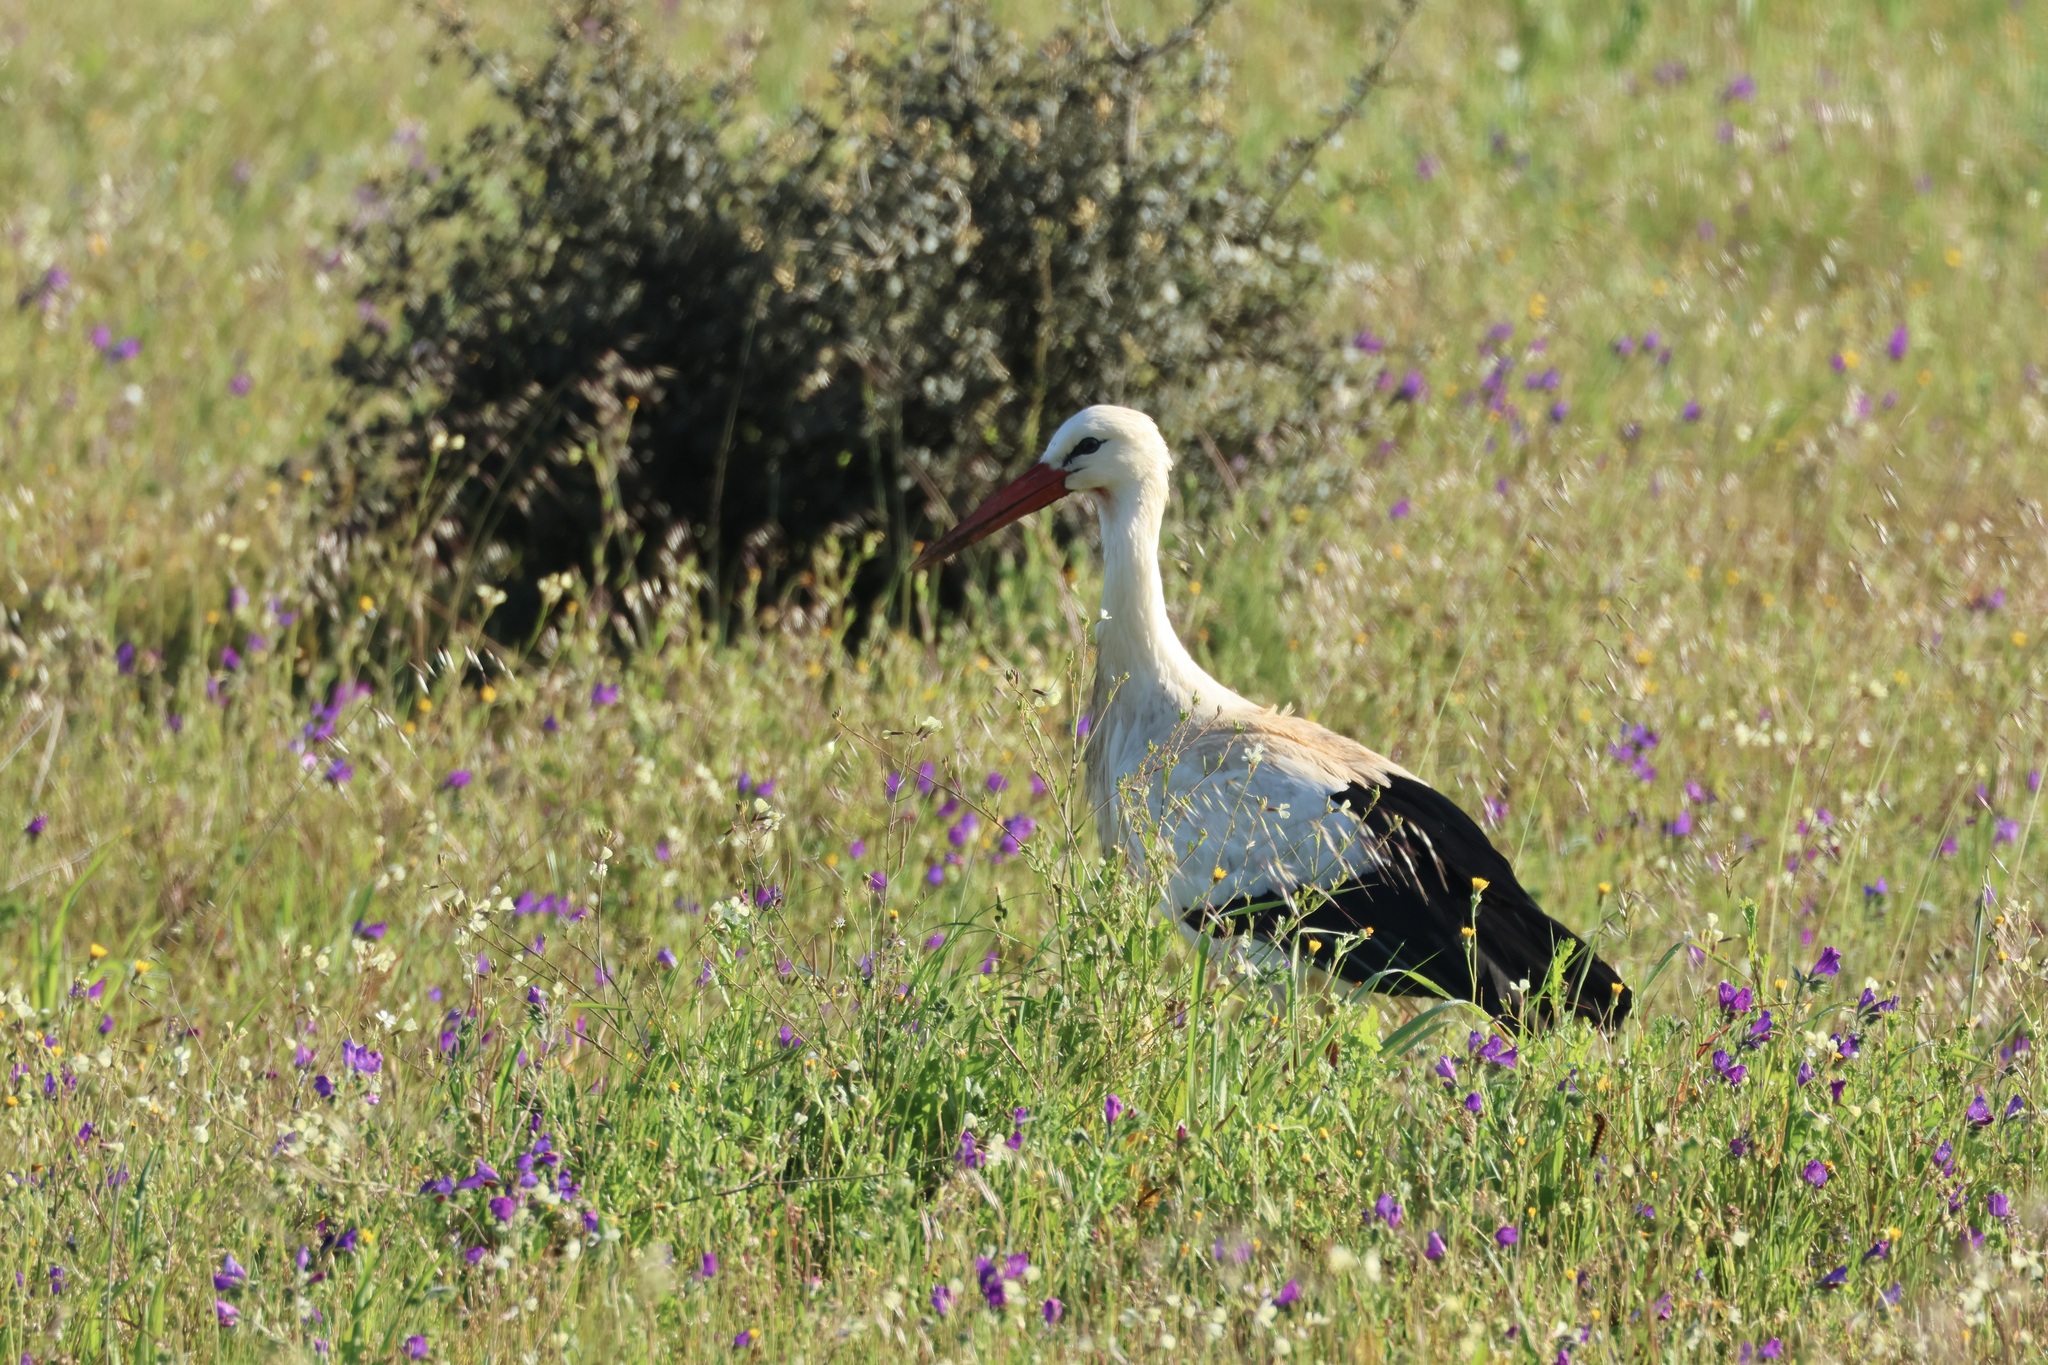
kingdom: Animalia
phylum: Chordata
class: Aves
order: Ciconiiformes
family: Ciconiidae
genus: Ciconia
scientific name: Ciconia ciconia
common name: White stork
